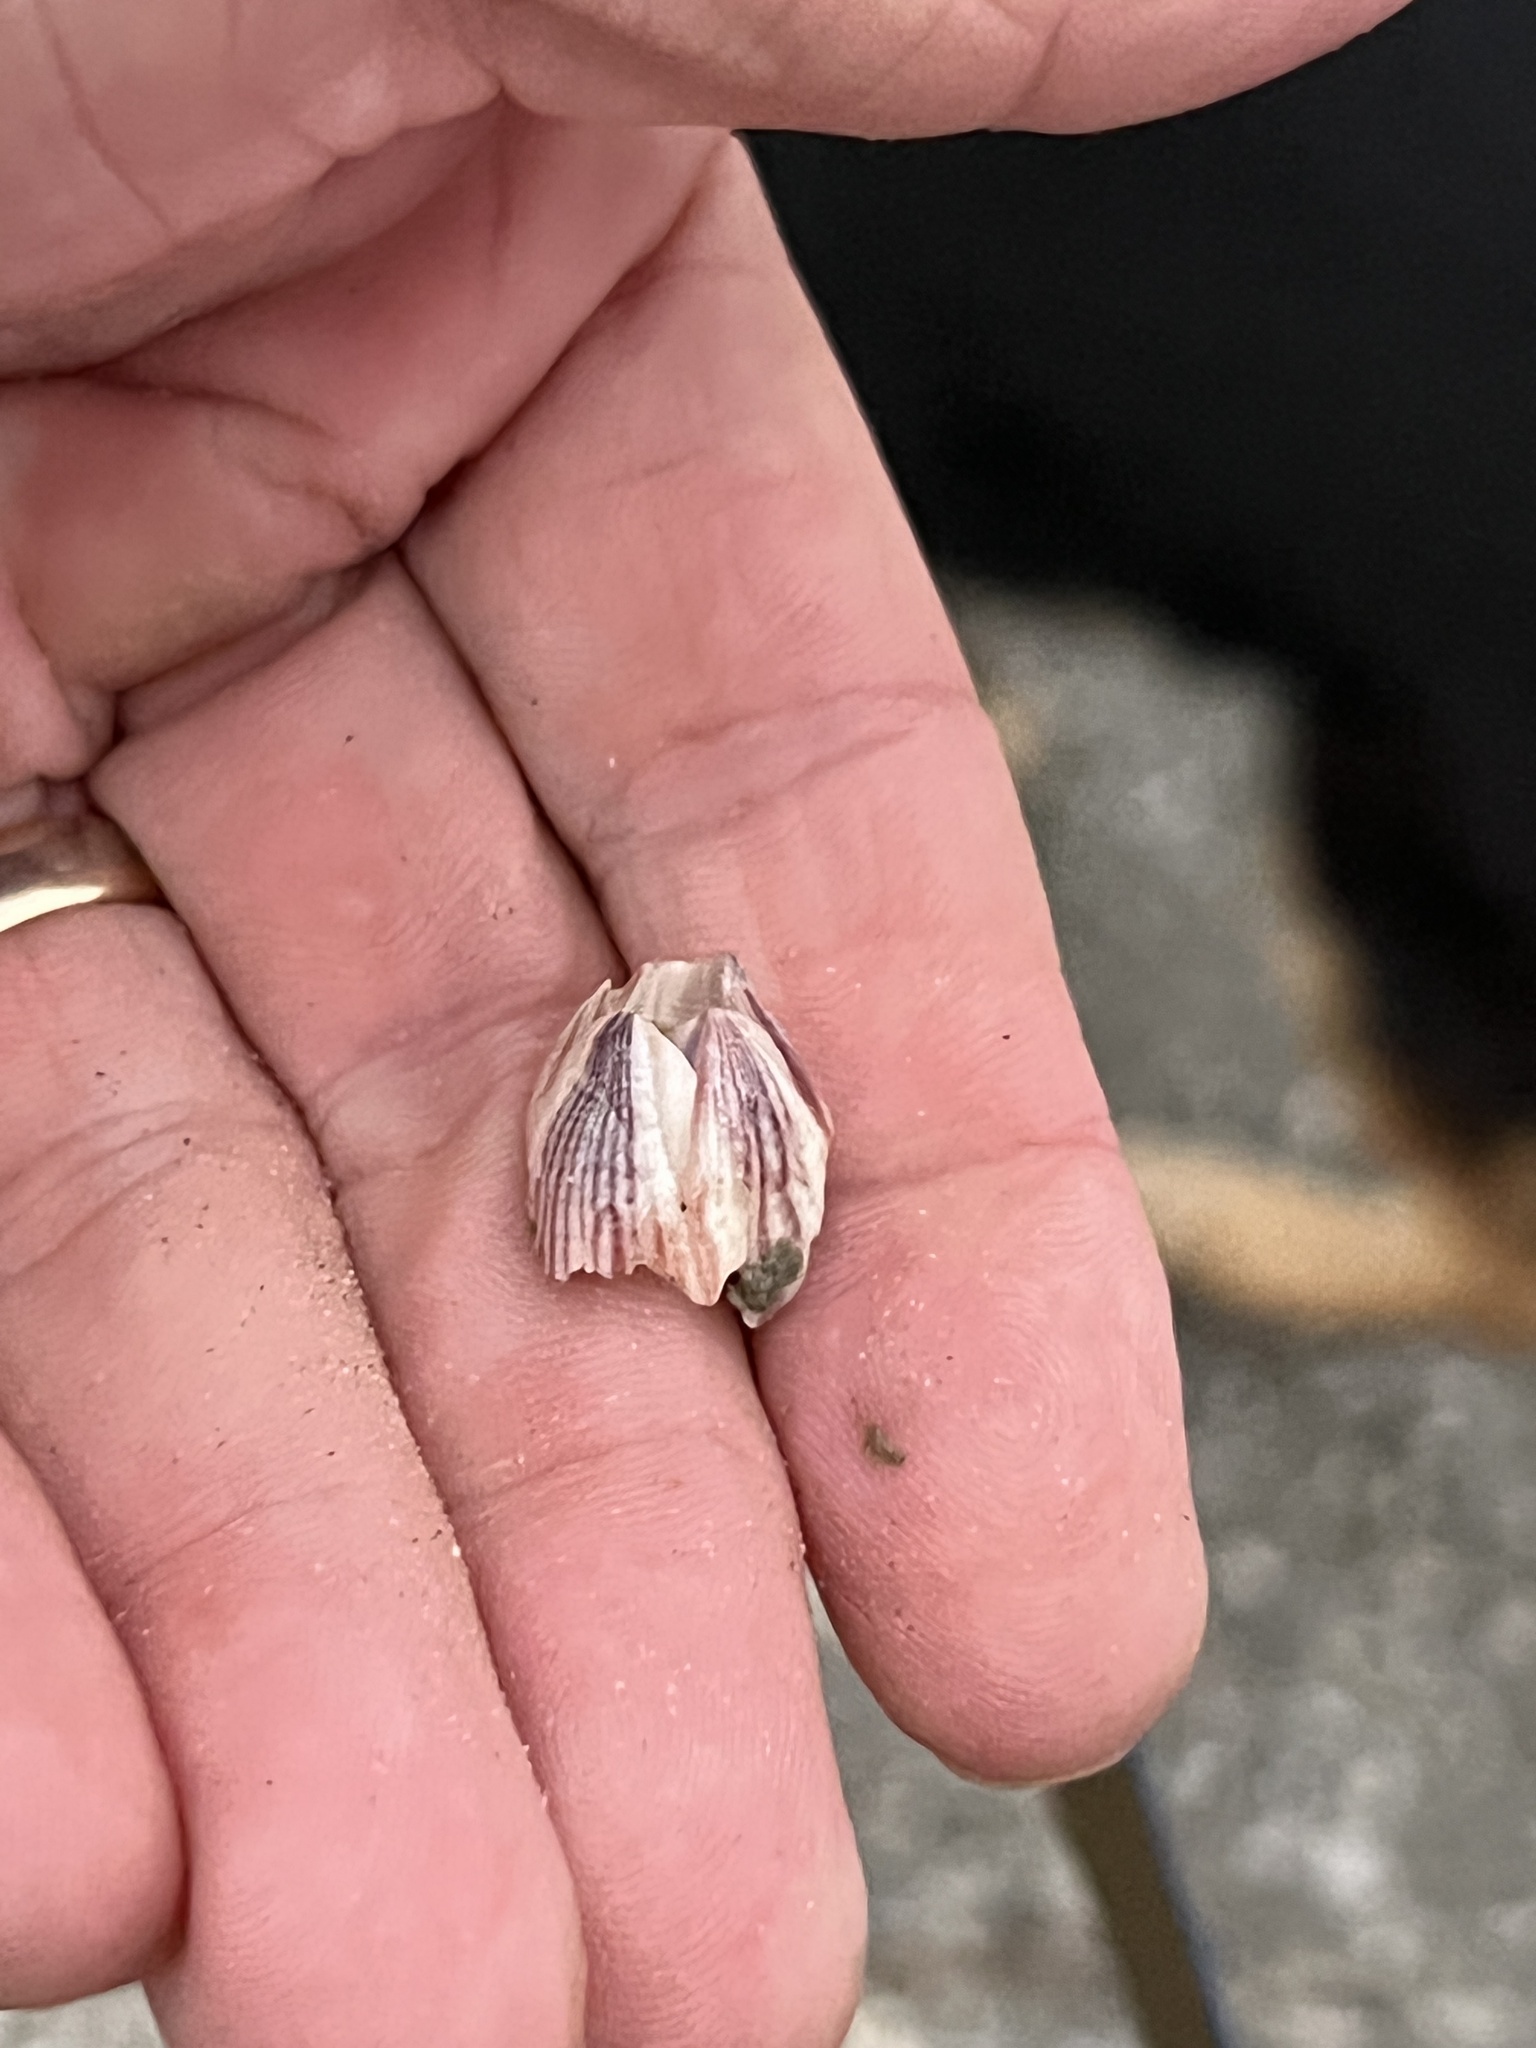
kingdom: Animalia
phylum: Arthropoda
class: Maxillopoda
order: Sessilia
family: Balanidae
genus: Amphibalanus
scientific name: Amphibalanus reticulatus
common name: Reticulated barnacle
